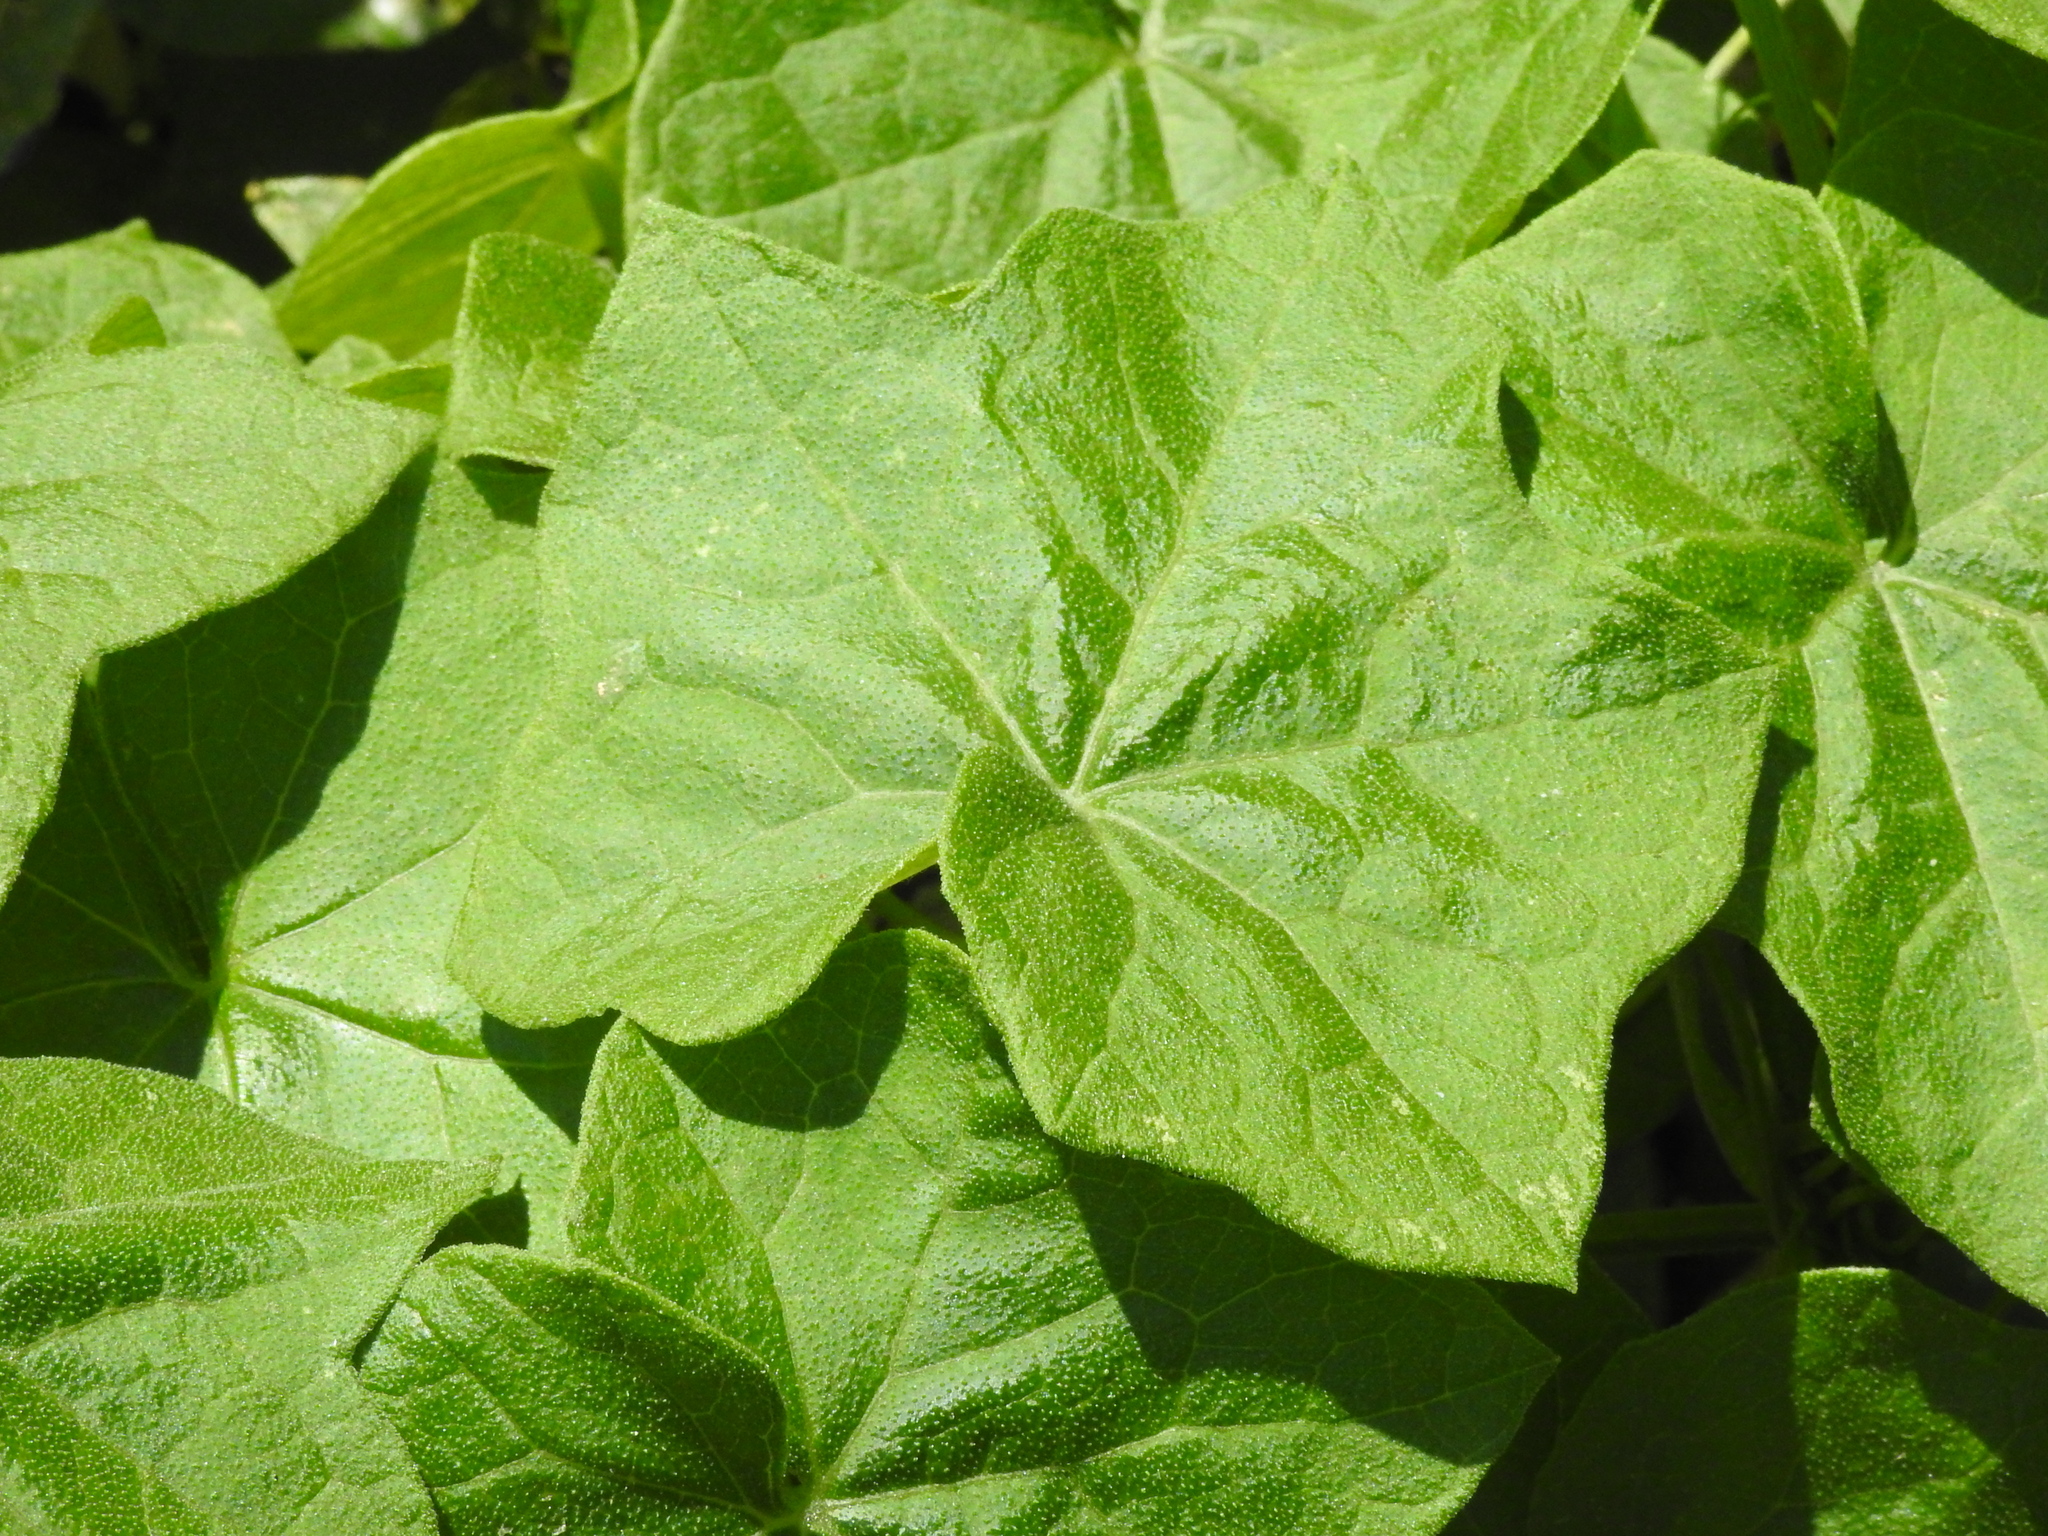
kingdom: Plantae
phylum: Tracheophyta
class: Magnoliopsida
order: Cucurbitales
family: Cucurbitaceae
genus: Marah
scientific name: Marah
